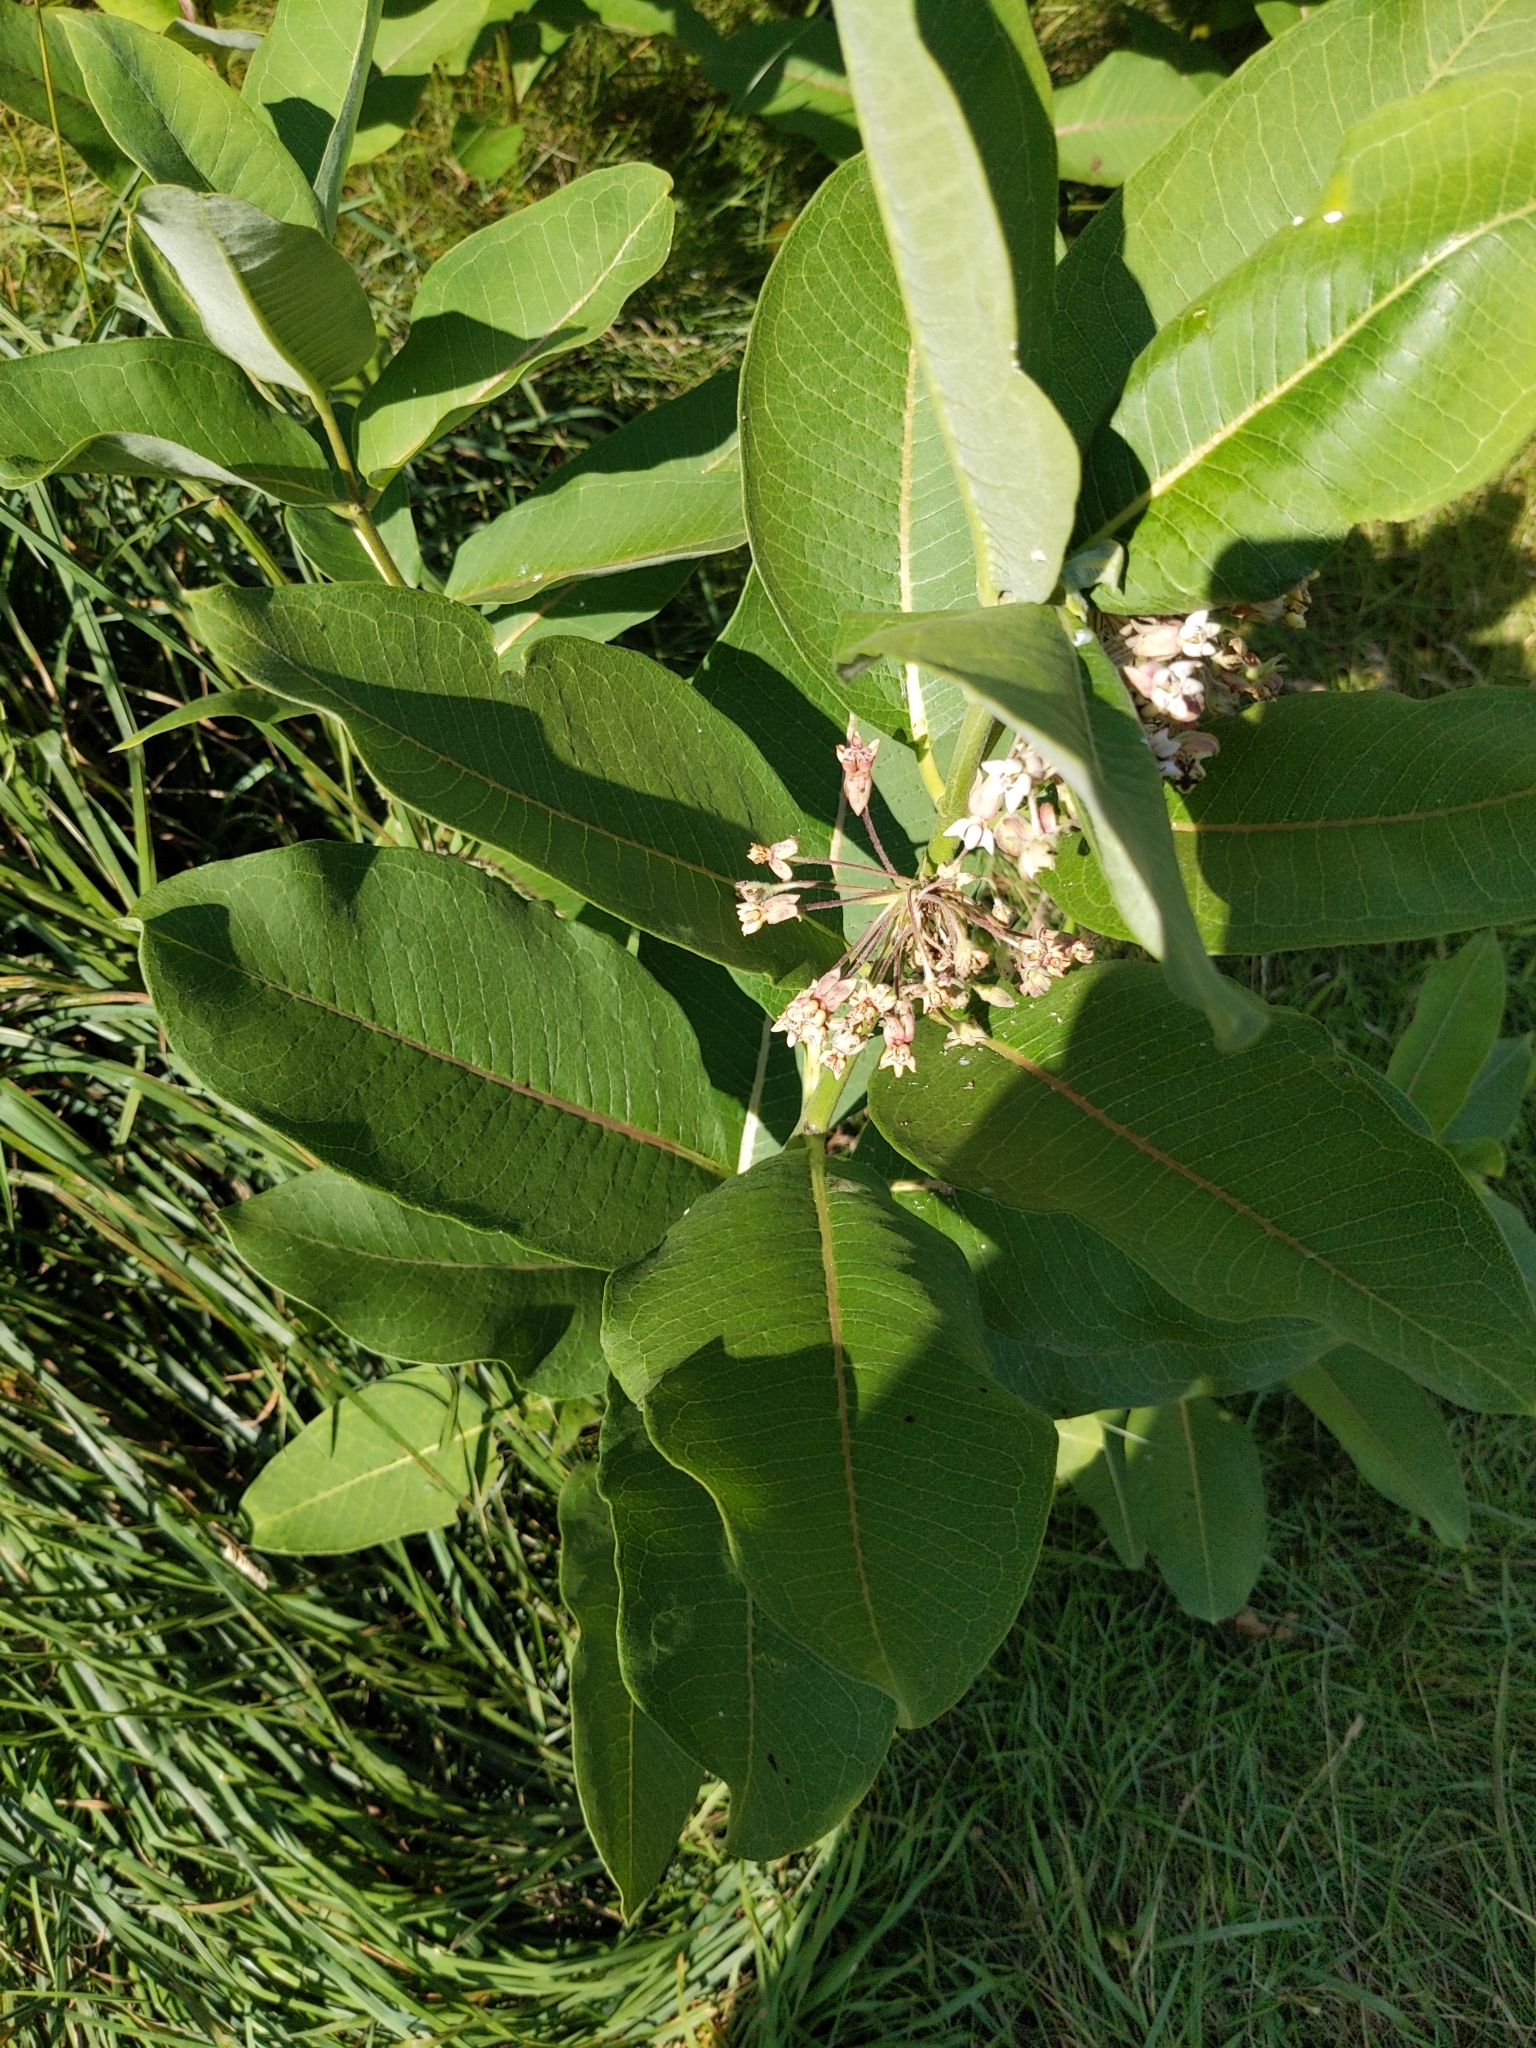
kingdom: Plantae
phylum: Tracheophyta
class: Magnoliopsida
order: Gentianales
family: Apocynaceae
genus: Asclepias
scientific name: Asclepias syriaca
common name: Common milkweed
